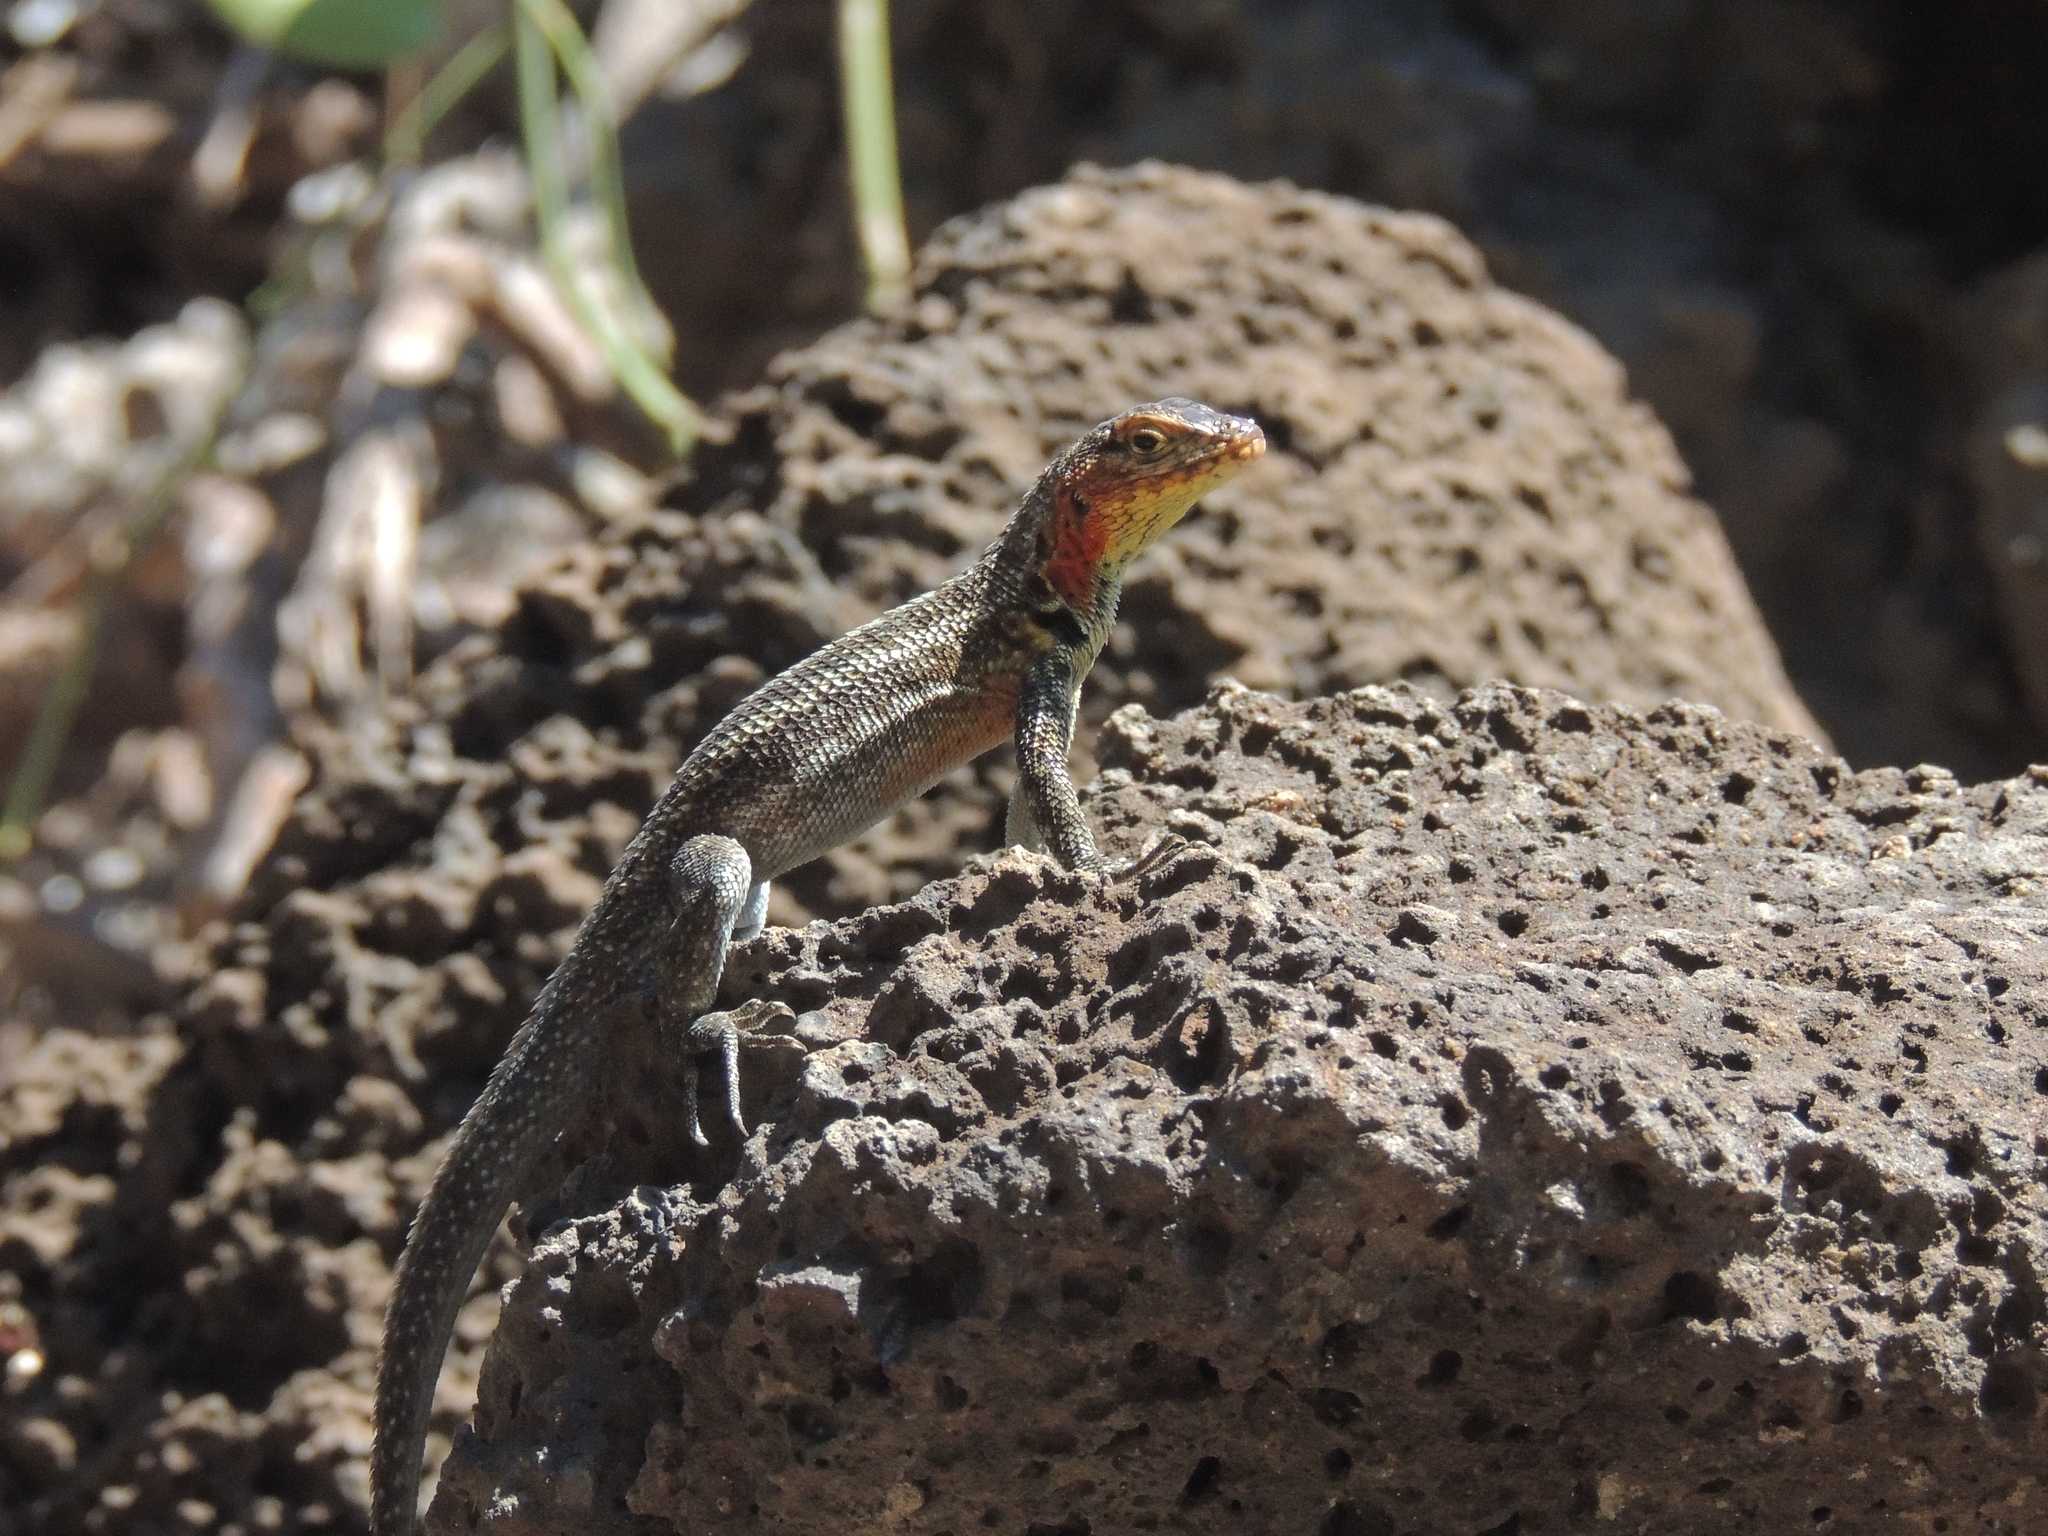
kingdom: Animalia
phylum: Chordata
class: Squamata
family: Tropiduridae
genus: Microlophus
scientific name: Microlophus indefatigabilis
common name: Galapagos lava lizard
